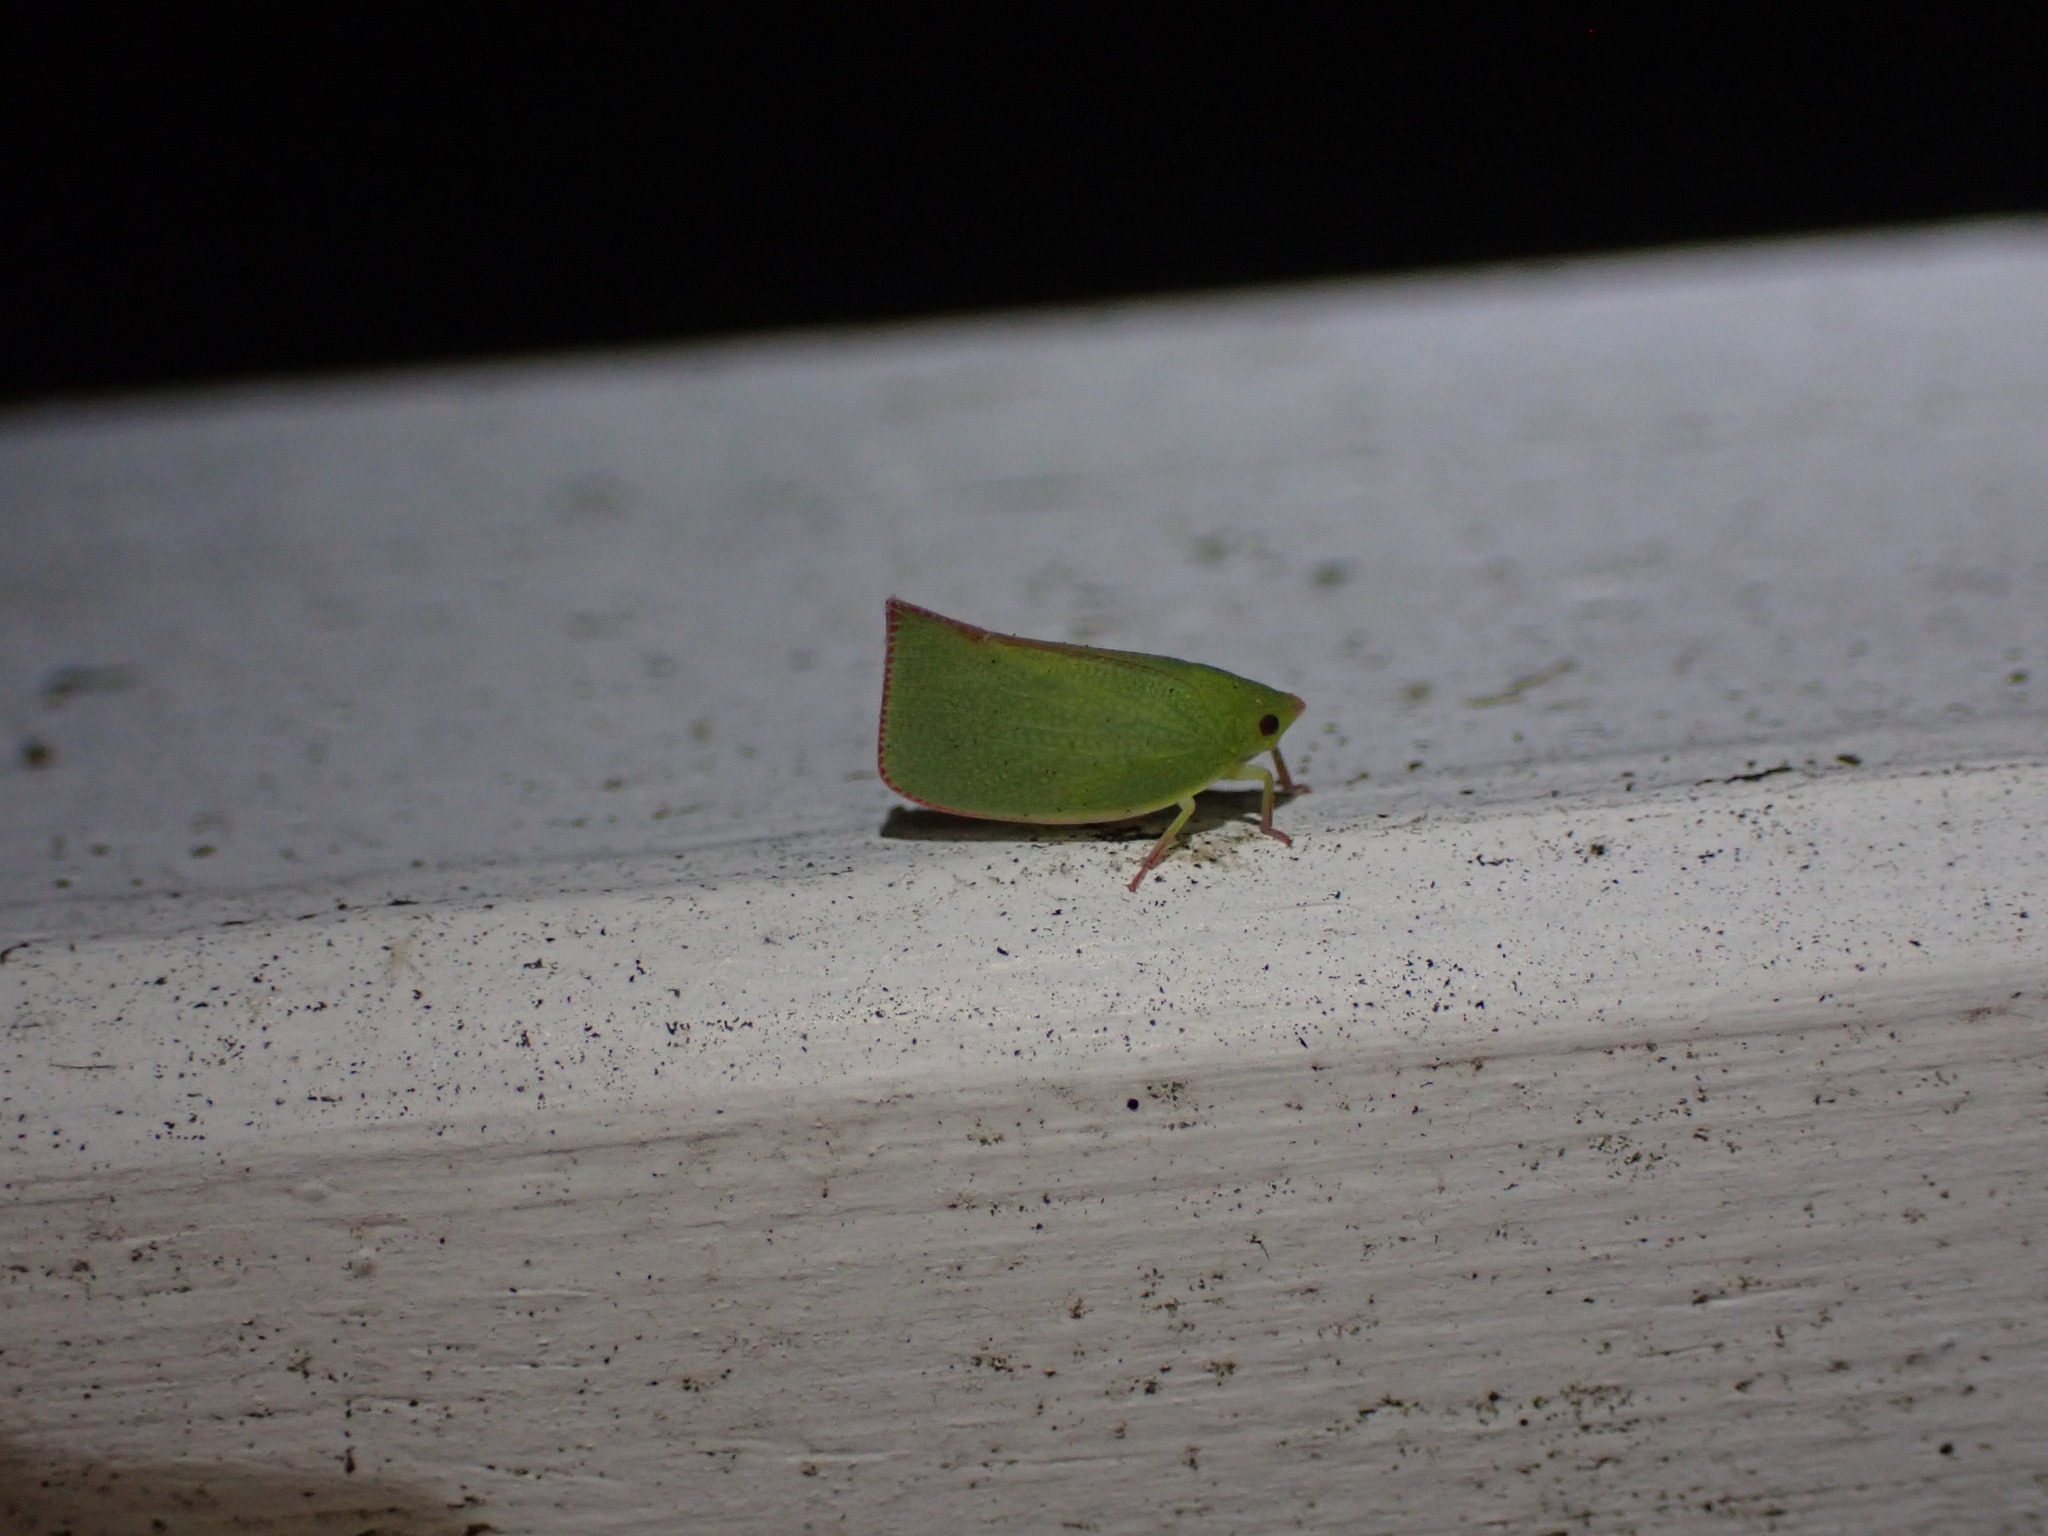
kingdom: Animalia
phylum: Arthropoda
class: Insecta
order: Hemiptera
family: Flatidae
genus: Siphanta
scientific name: Siphanta acuta
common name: Torpedo bug
